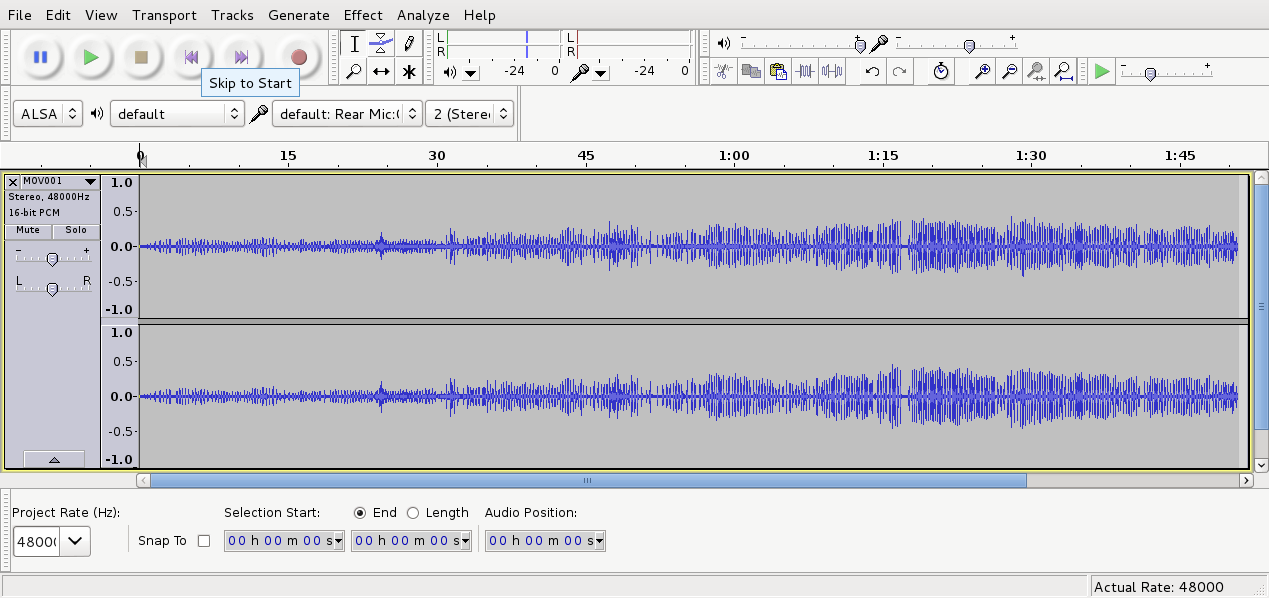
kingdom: Animalia
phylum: Chordata
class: Aves
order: Passeriformes
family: Meliphagidae
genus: Anthornis
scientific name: Anthornis melanura
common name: New zealand bellbird
